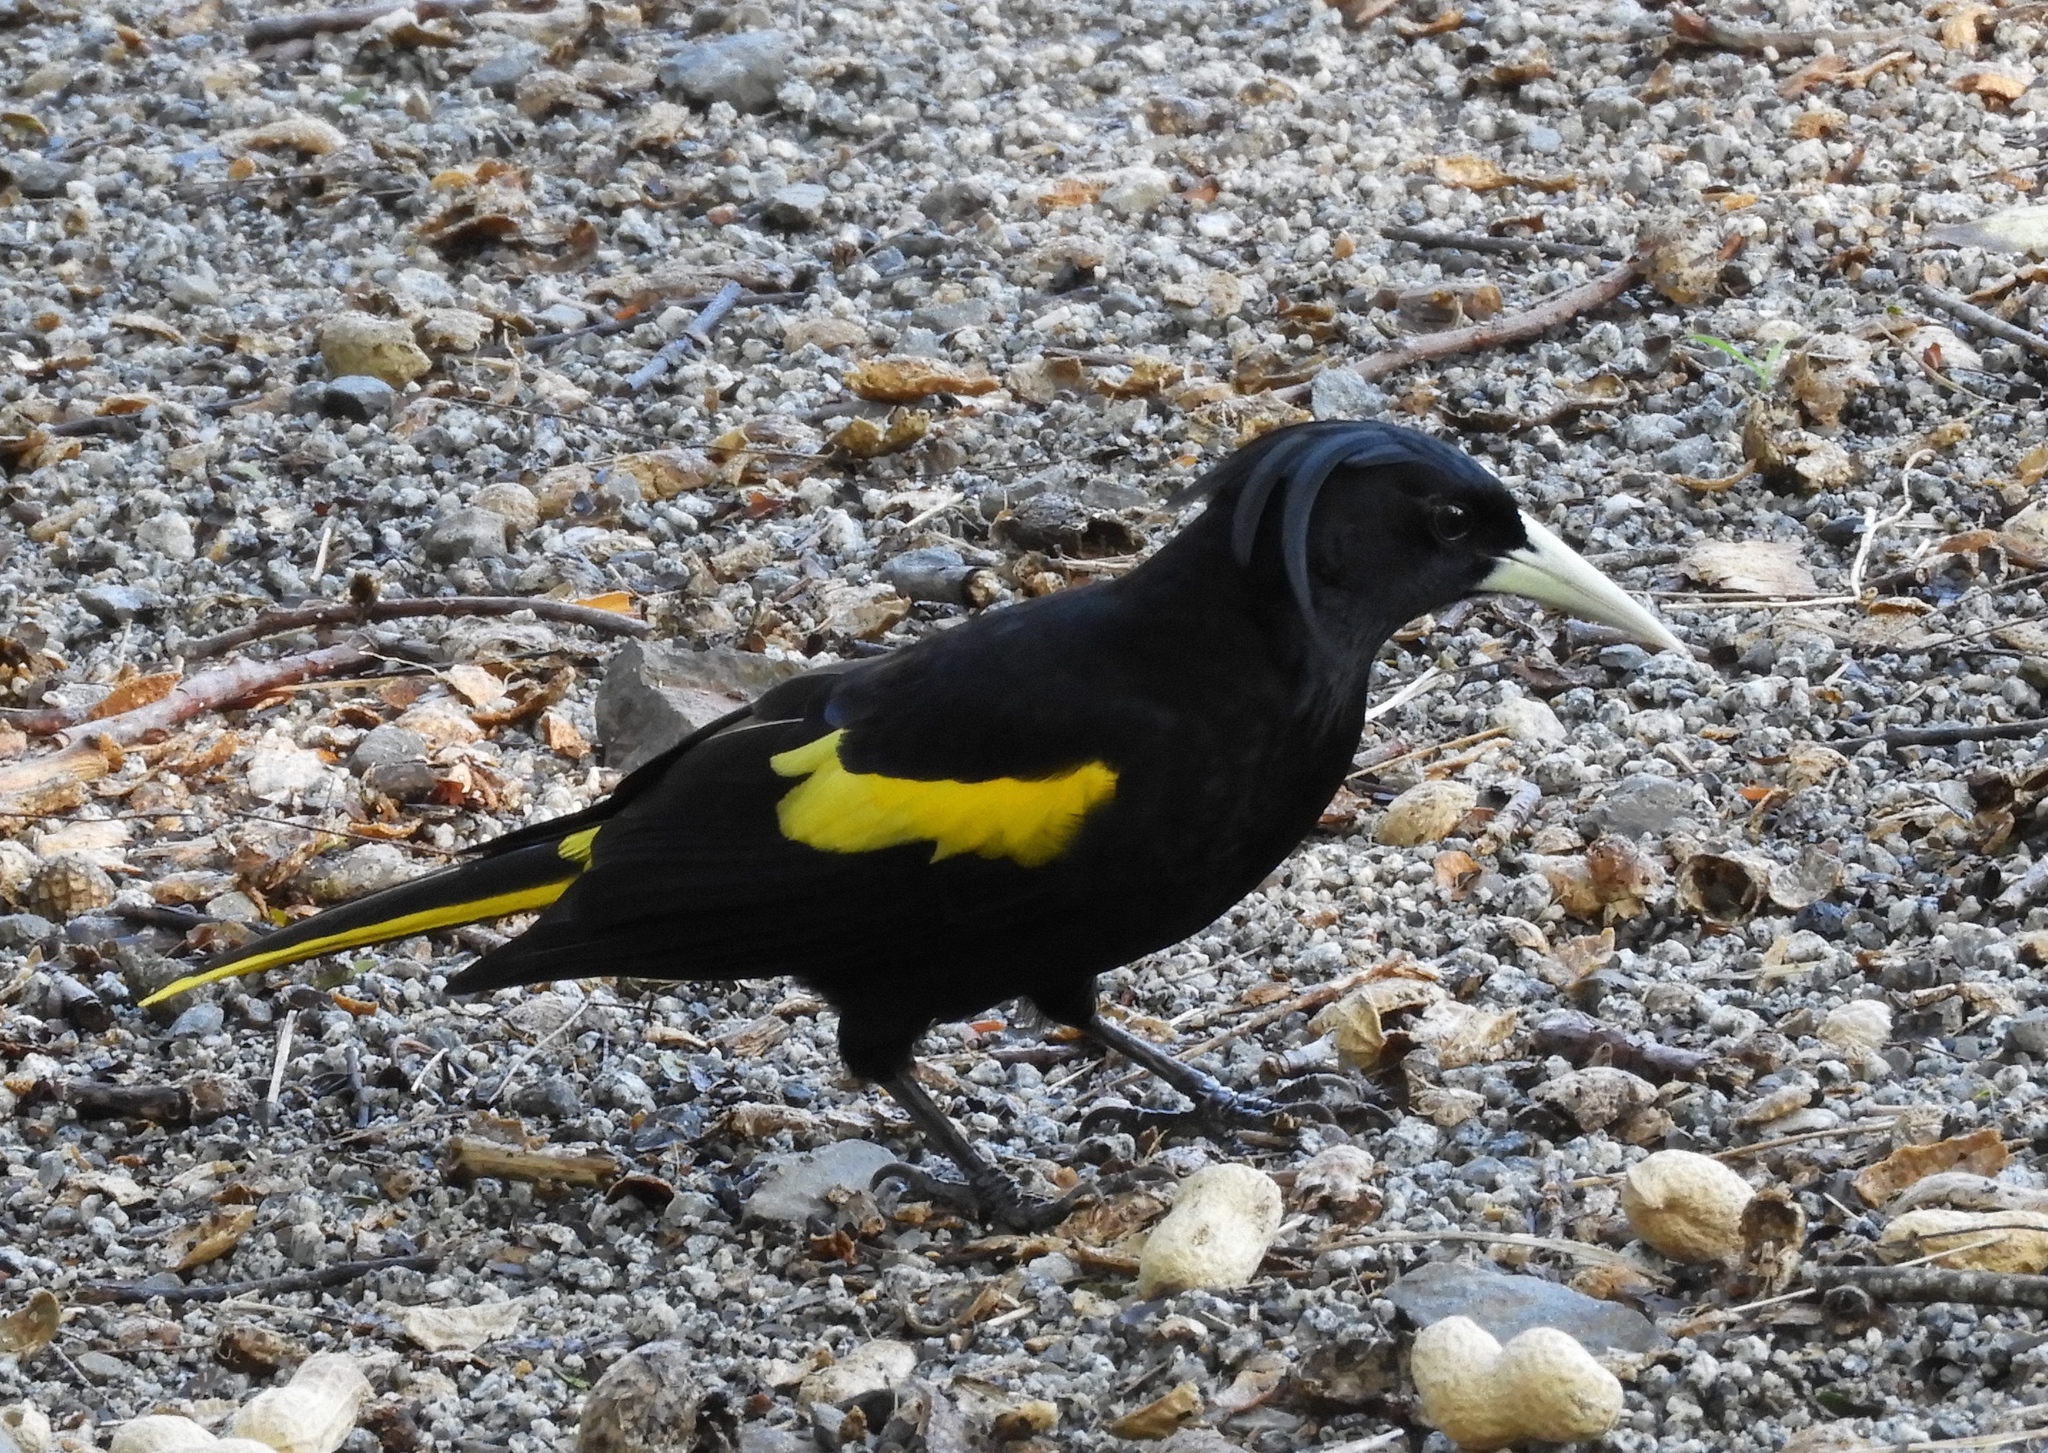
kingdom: Animalia
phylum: Chordata
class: Aves
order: Passeriformes
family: Icteridae
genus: Cacicus
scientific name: Cacicus melanicterus
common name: Yellow-winged cacique
